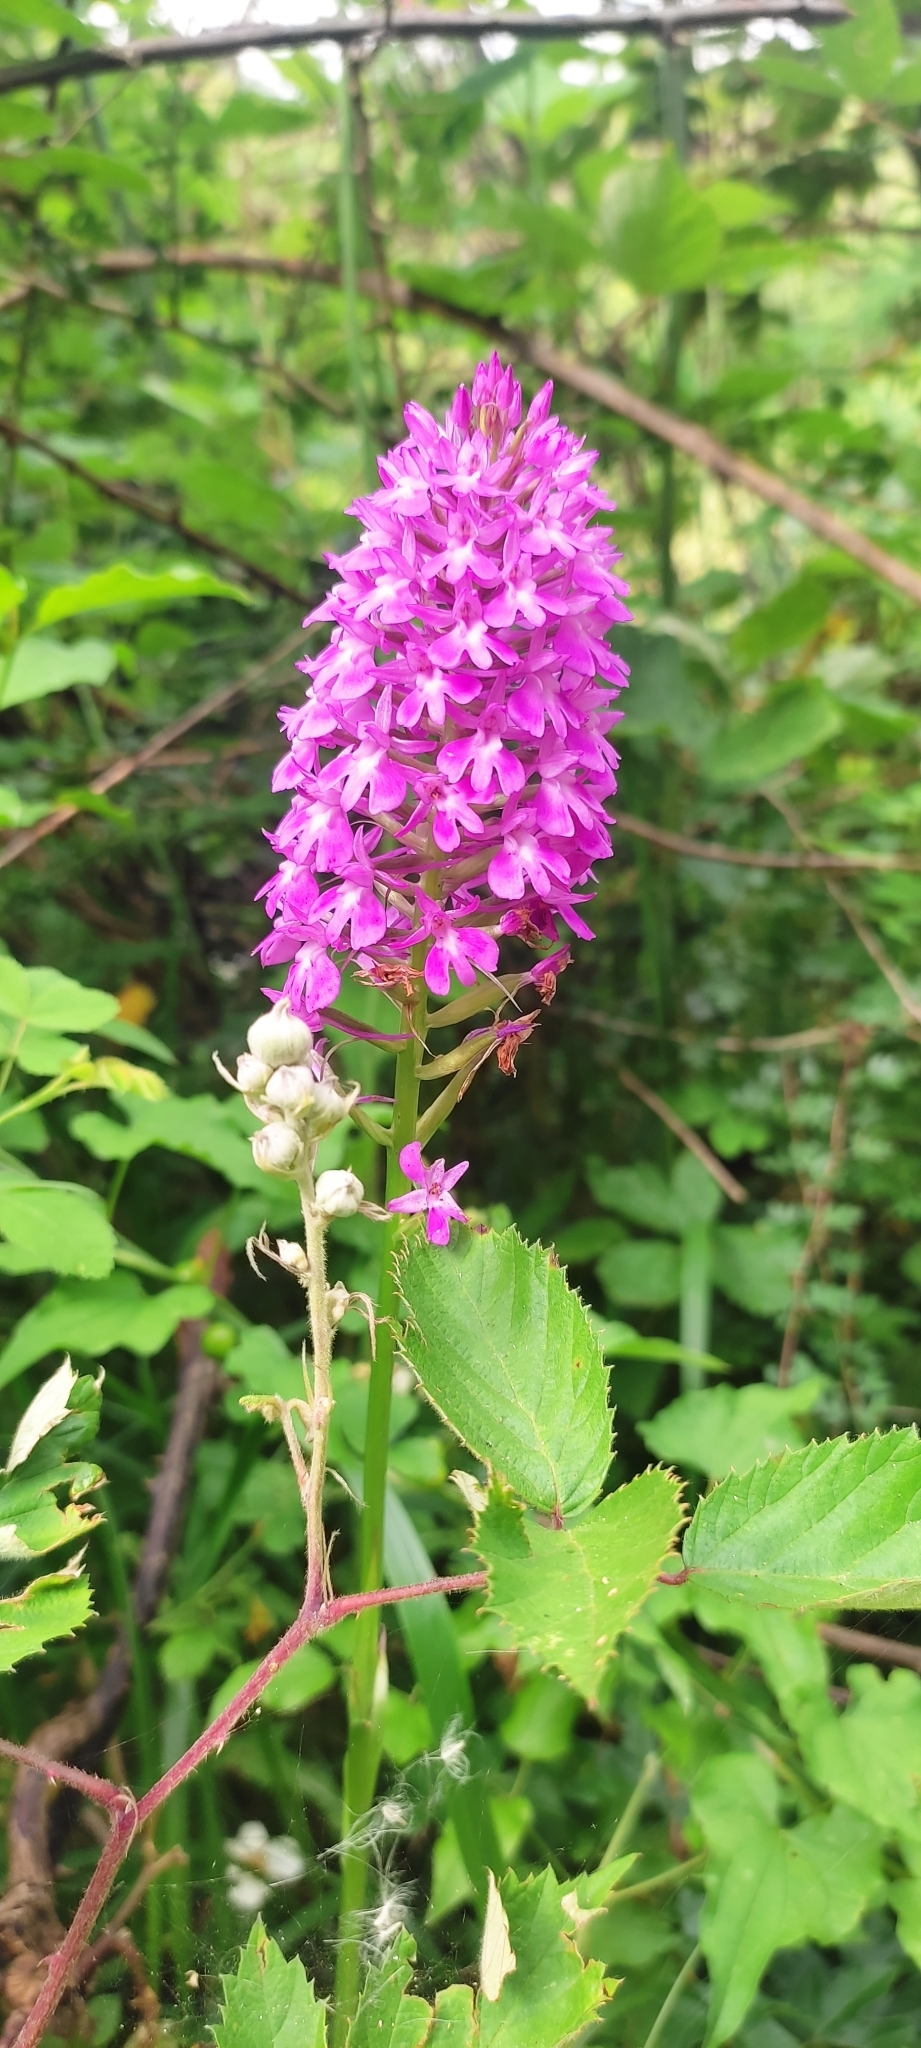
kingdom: Plantae
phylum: Tracheophyta
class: Liliopsida
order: Asparagales
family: Orchidaceae
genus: Anacamptis
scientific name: Anacamptis pyramidalis
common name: Pyramidal orchid
